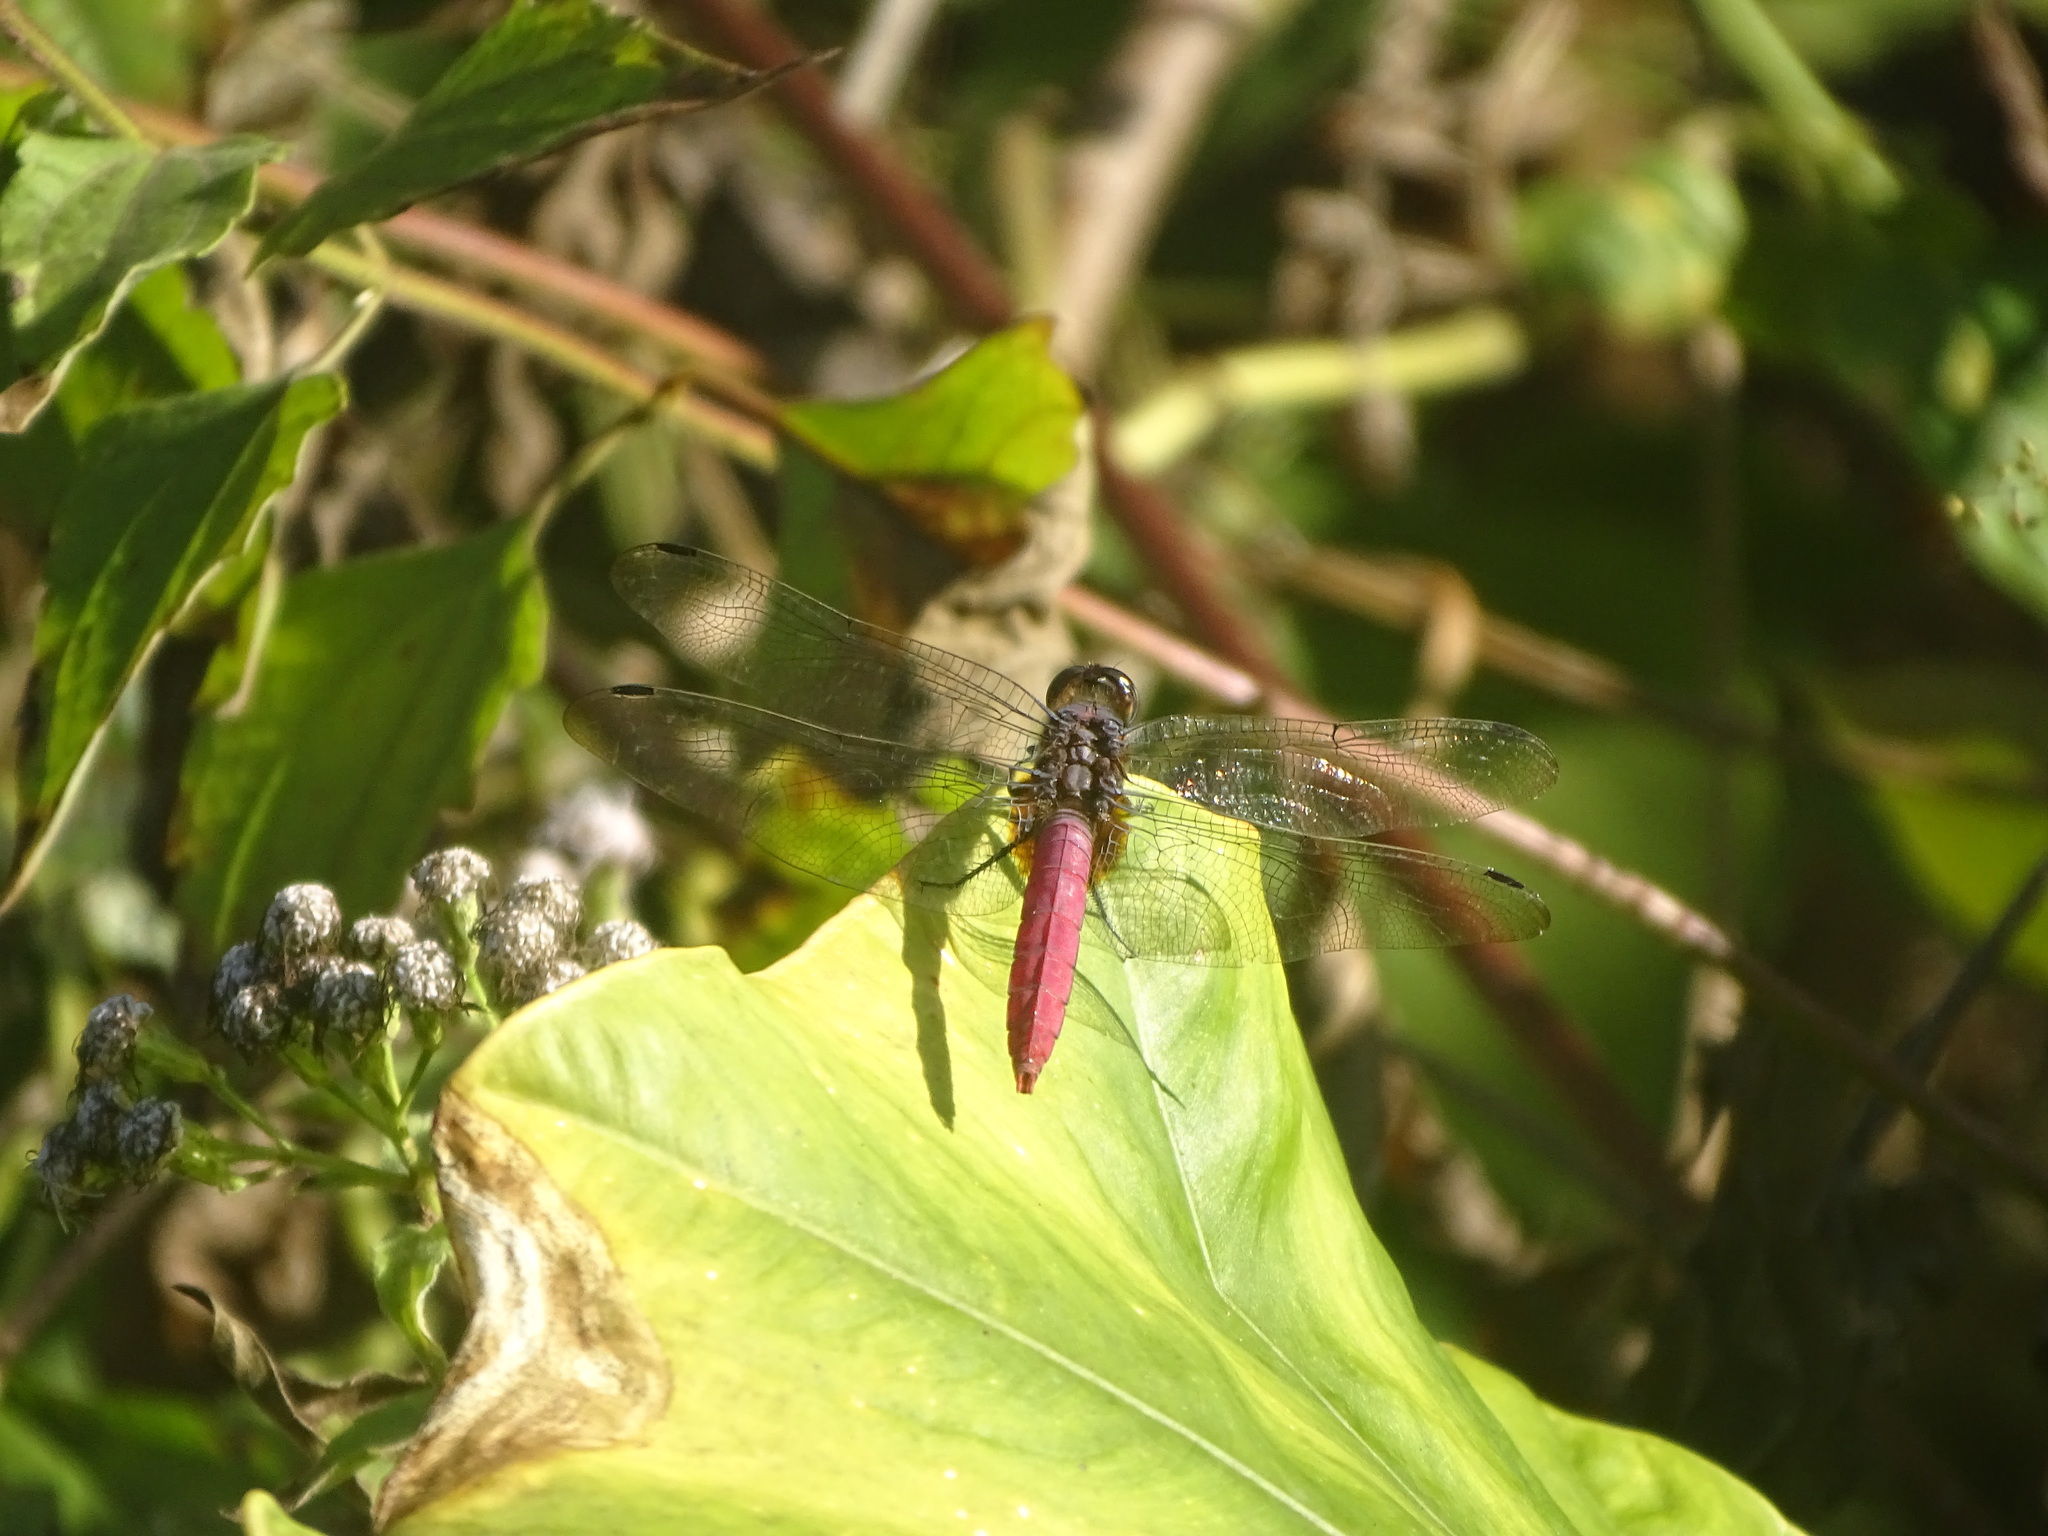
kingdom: Animalia
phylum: Arthropoda
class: Insecta
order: Odonata
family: Libellulidae
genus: Orthetrum
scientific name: Orthetrum pruinosum
